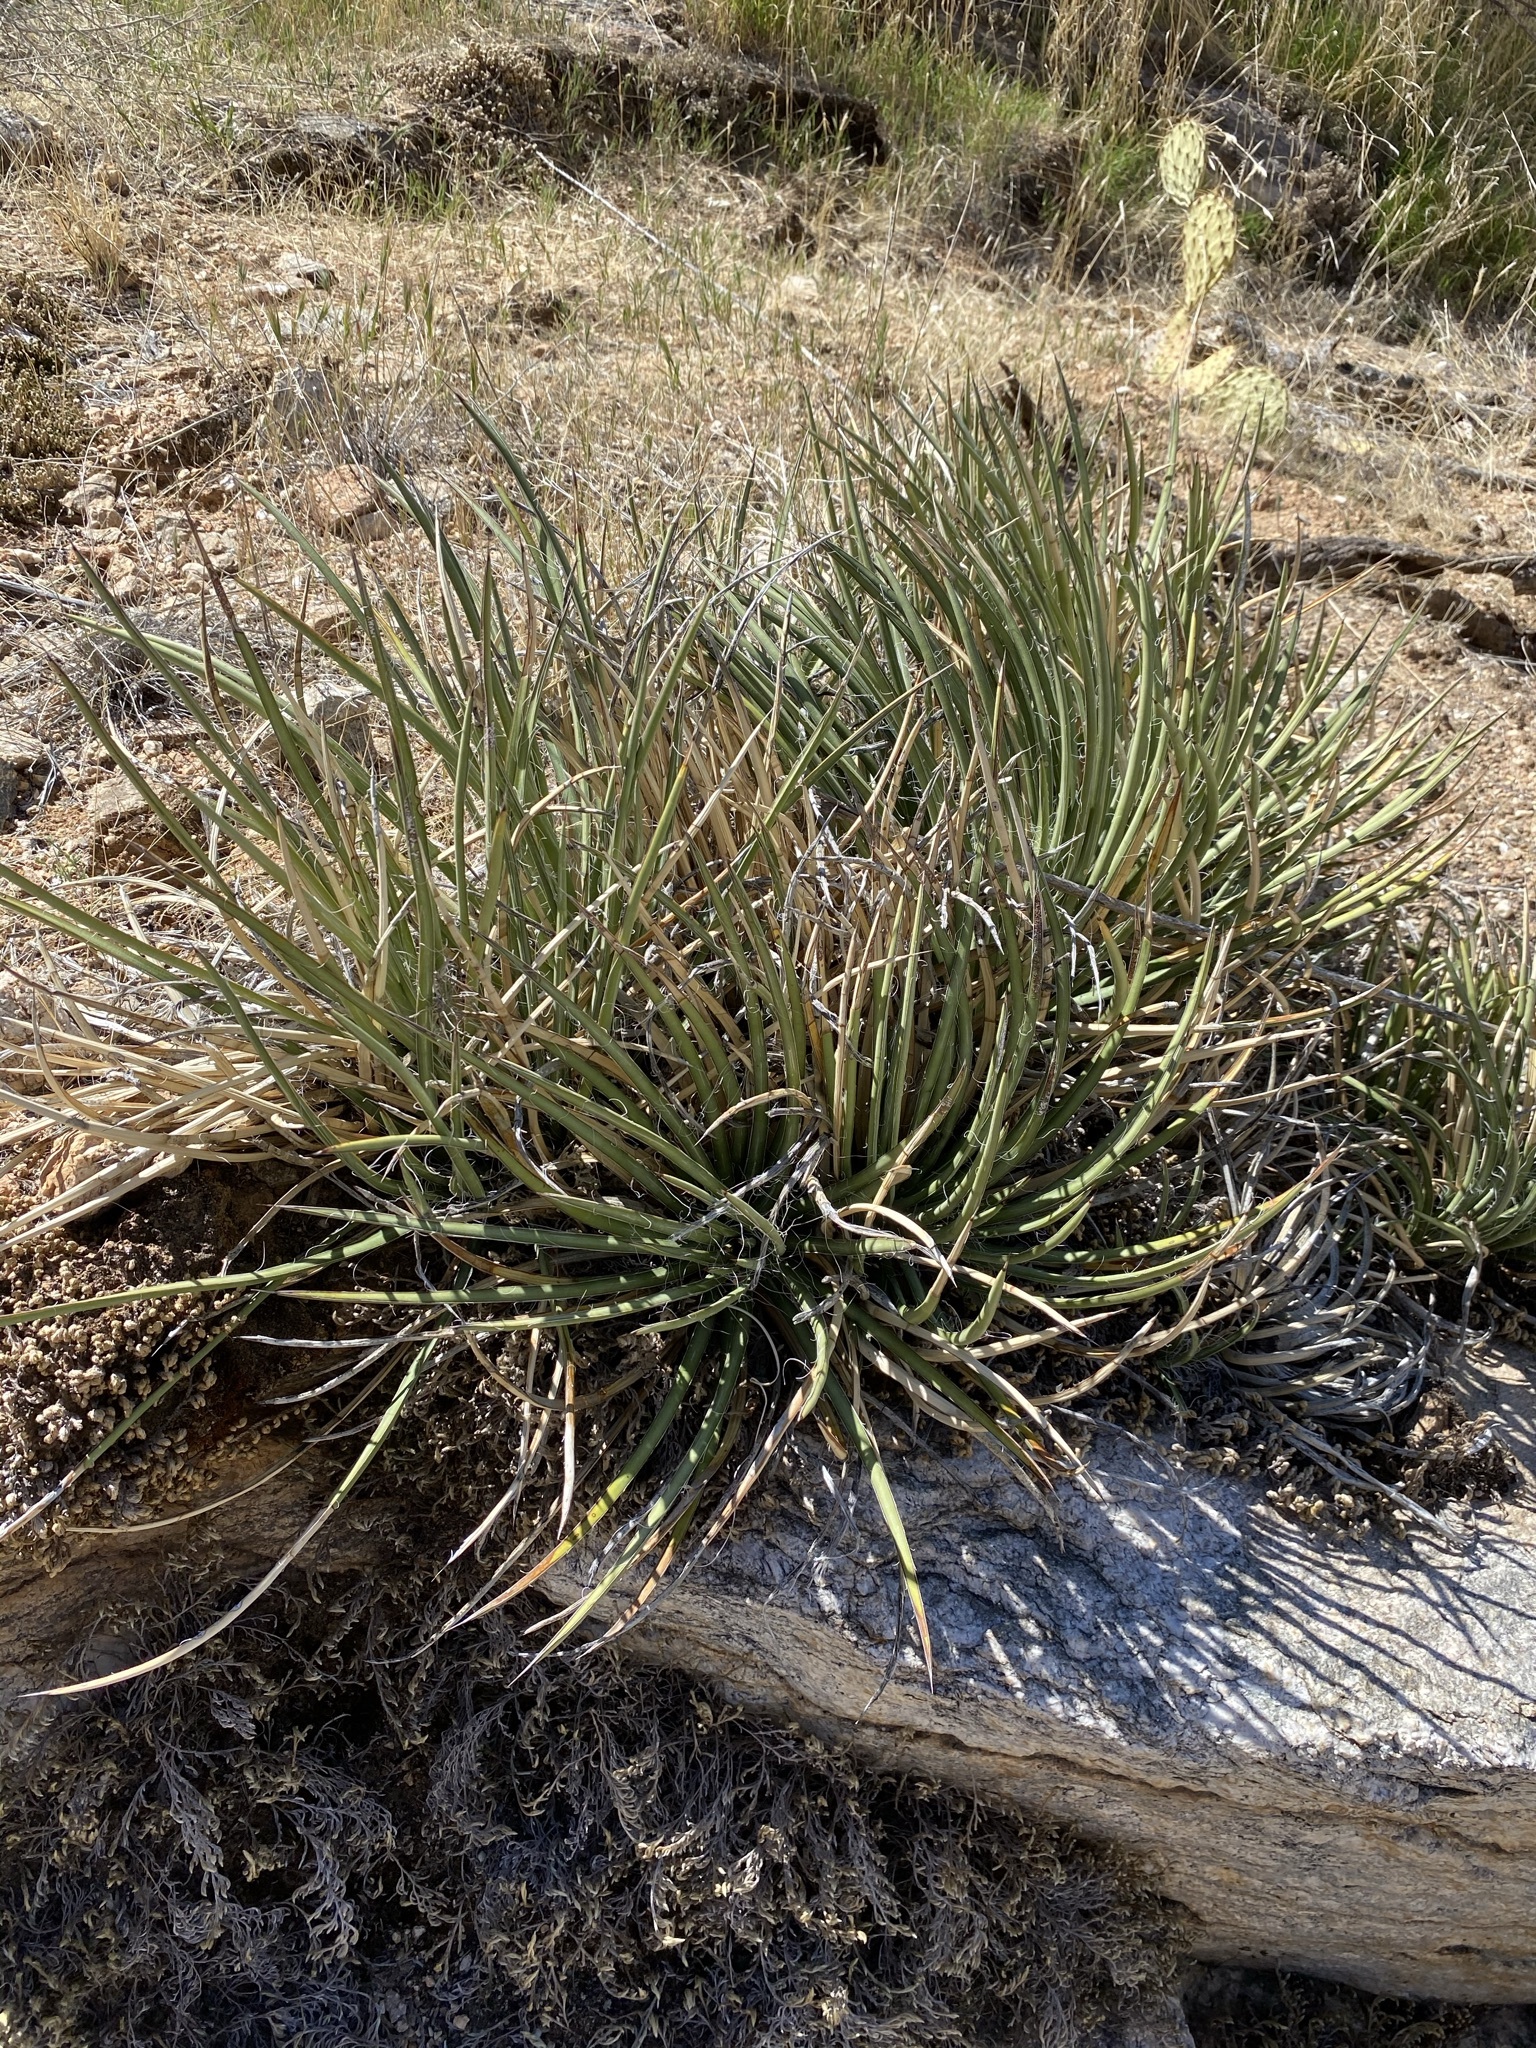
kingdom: Plantae
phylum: Tracheophyta
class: Liliopsida
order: Asparagales
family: Asparagaceae
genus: Agave
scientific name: Agave schottii
